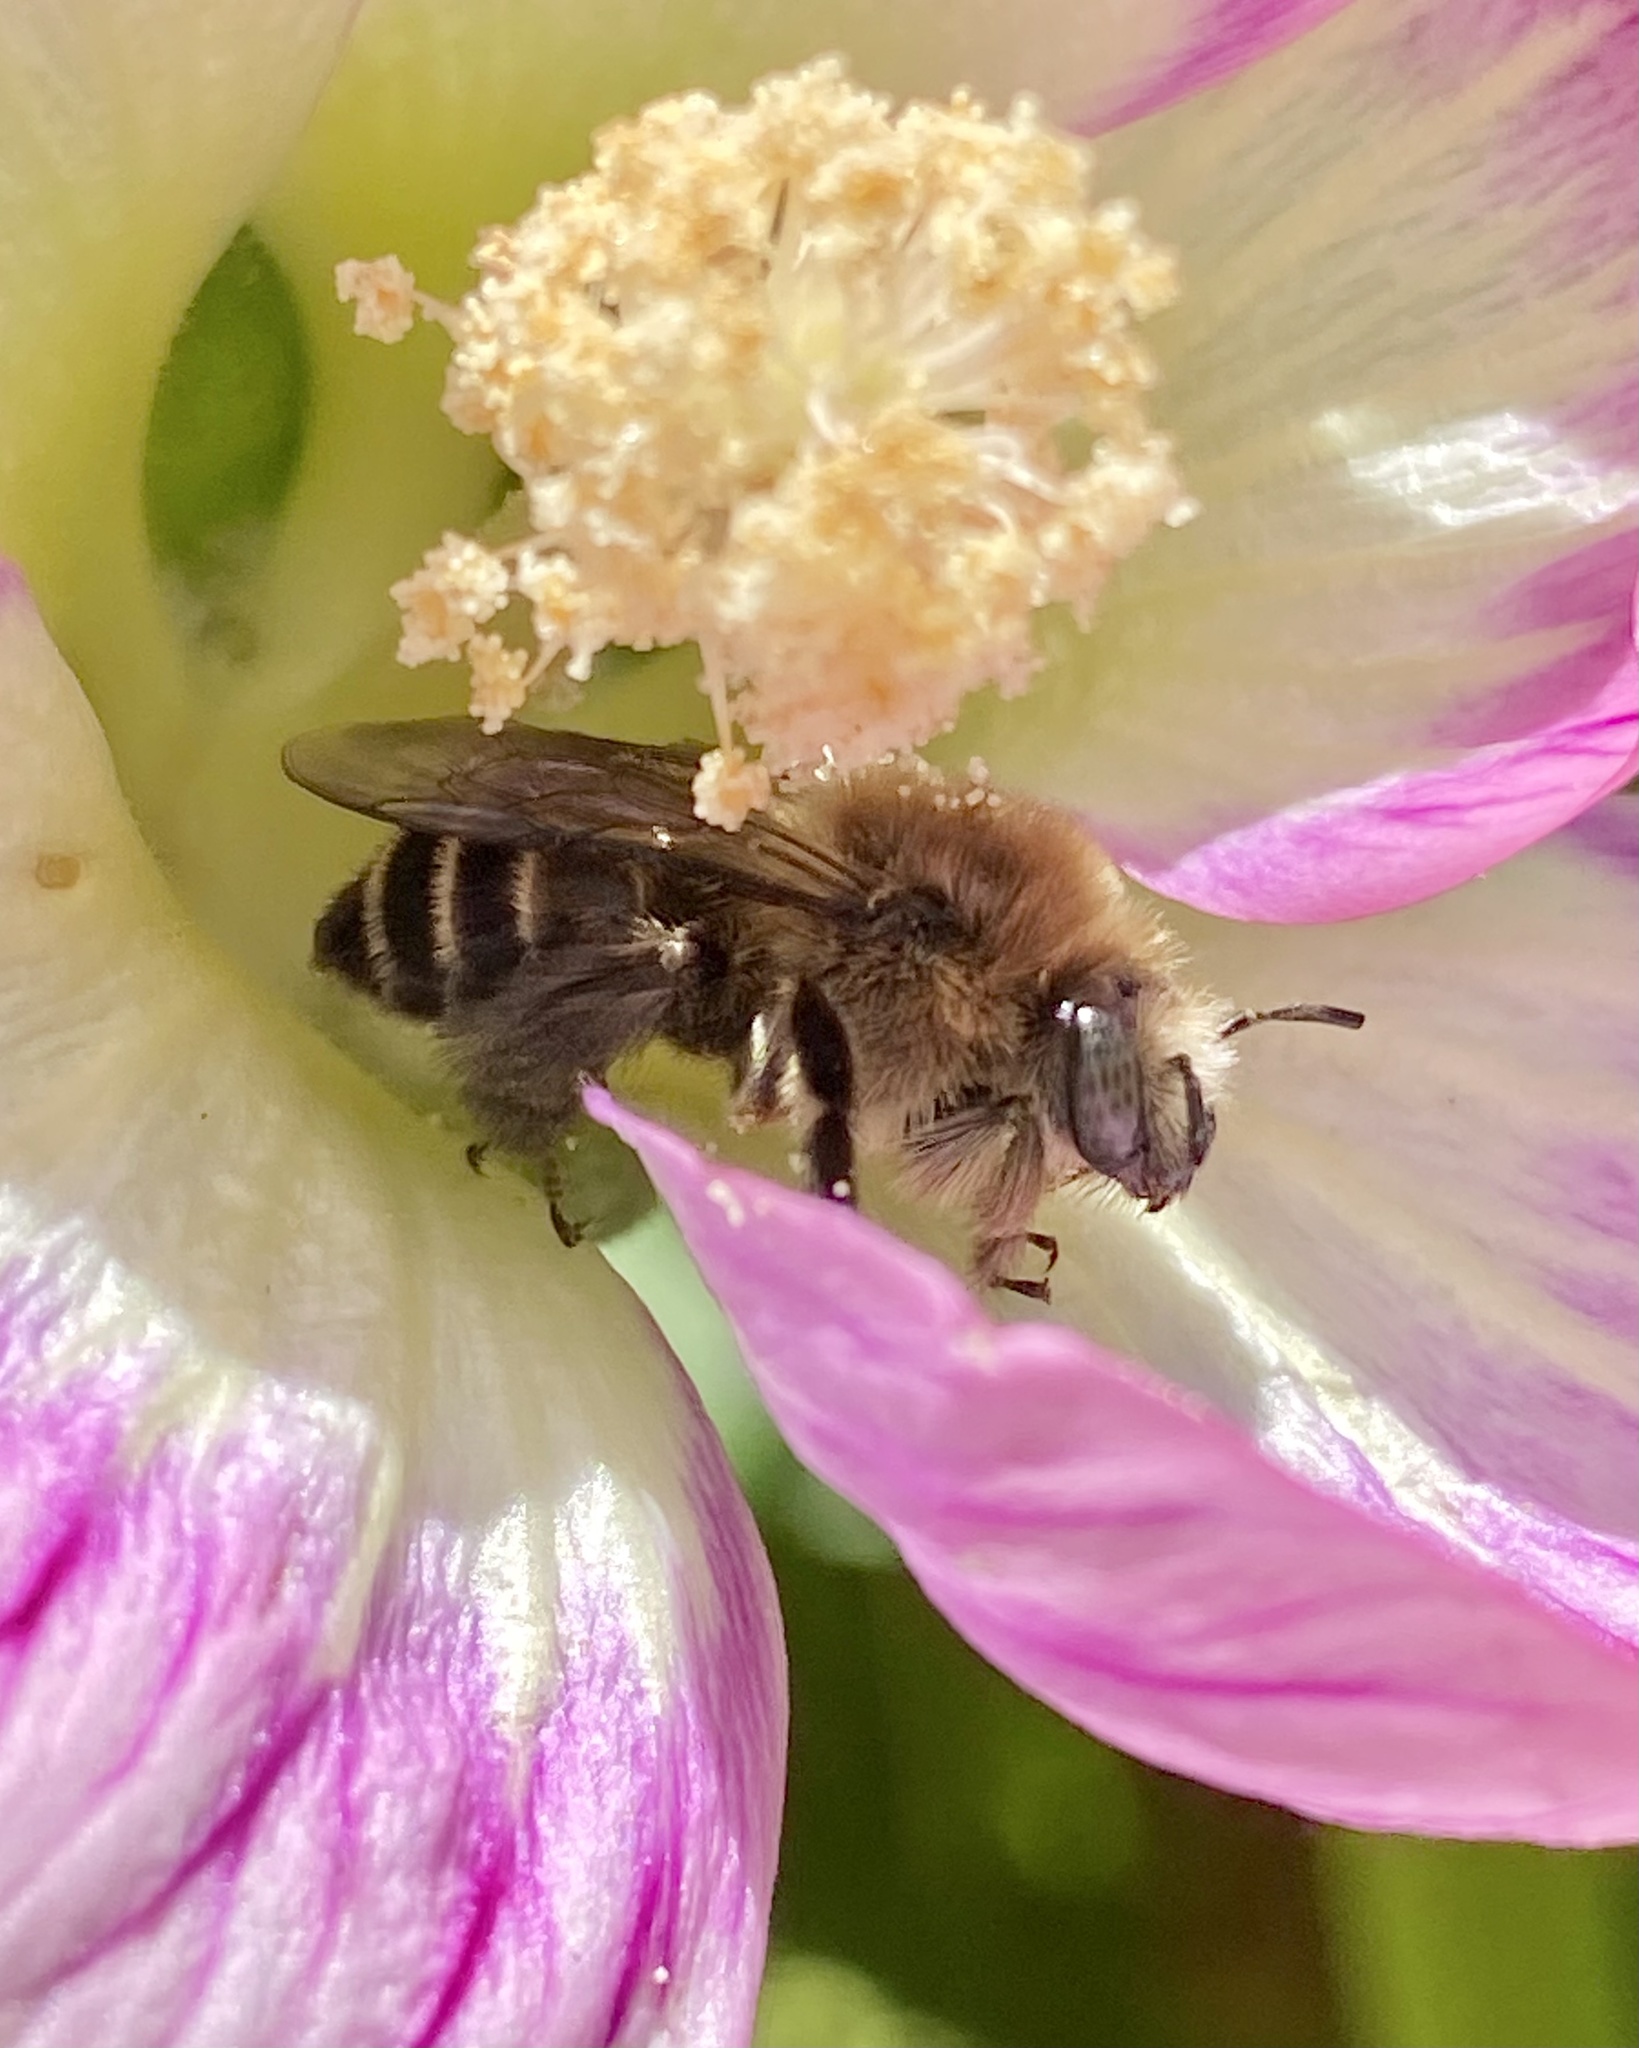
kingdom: Animalia
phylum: Arthropoda
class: Insecta
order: Hymenoptera
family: Apidae
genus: Diadasia
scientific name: Diadasia bituberculata
